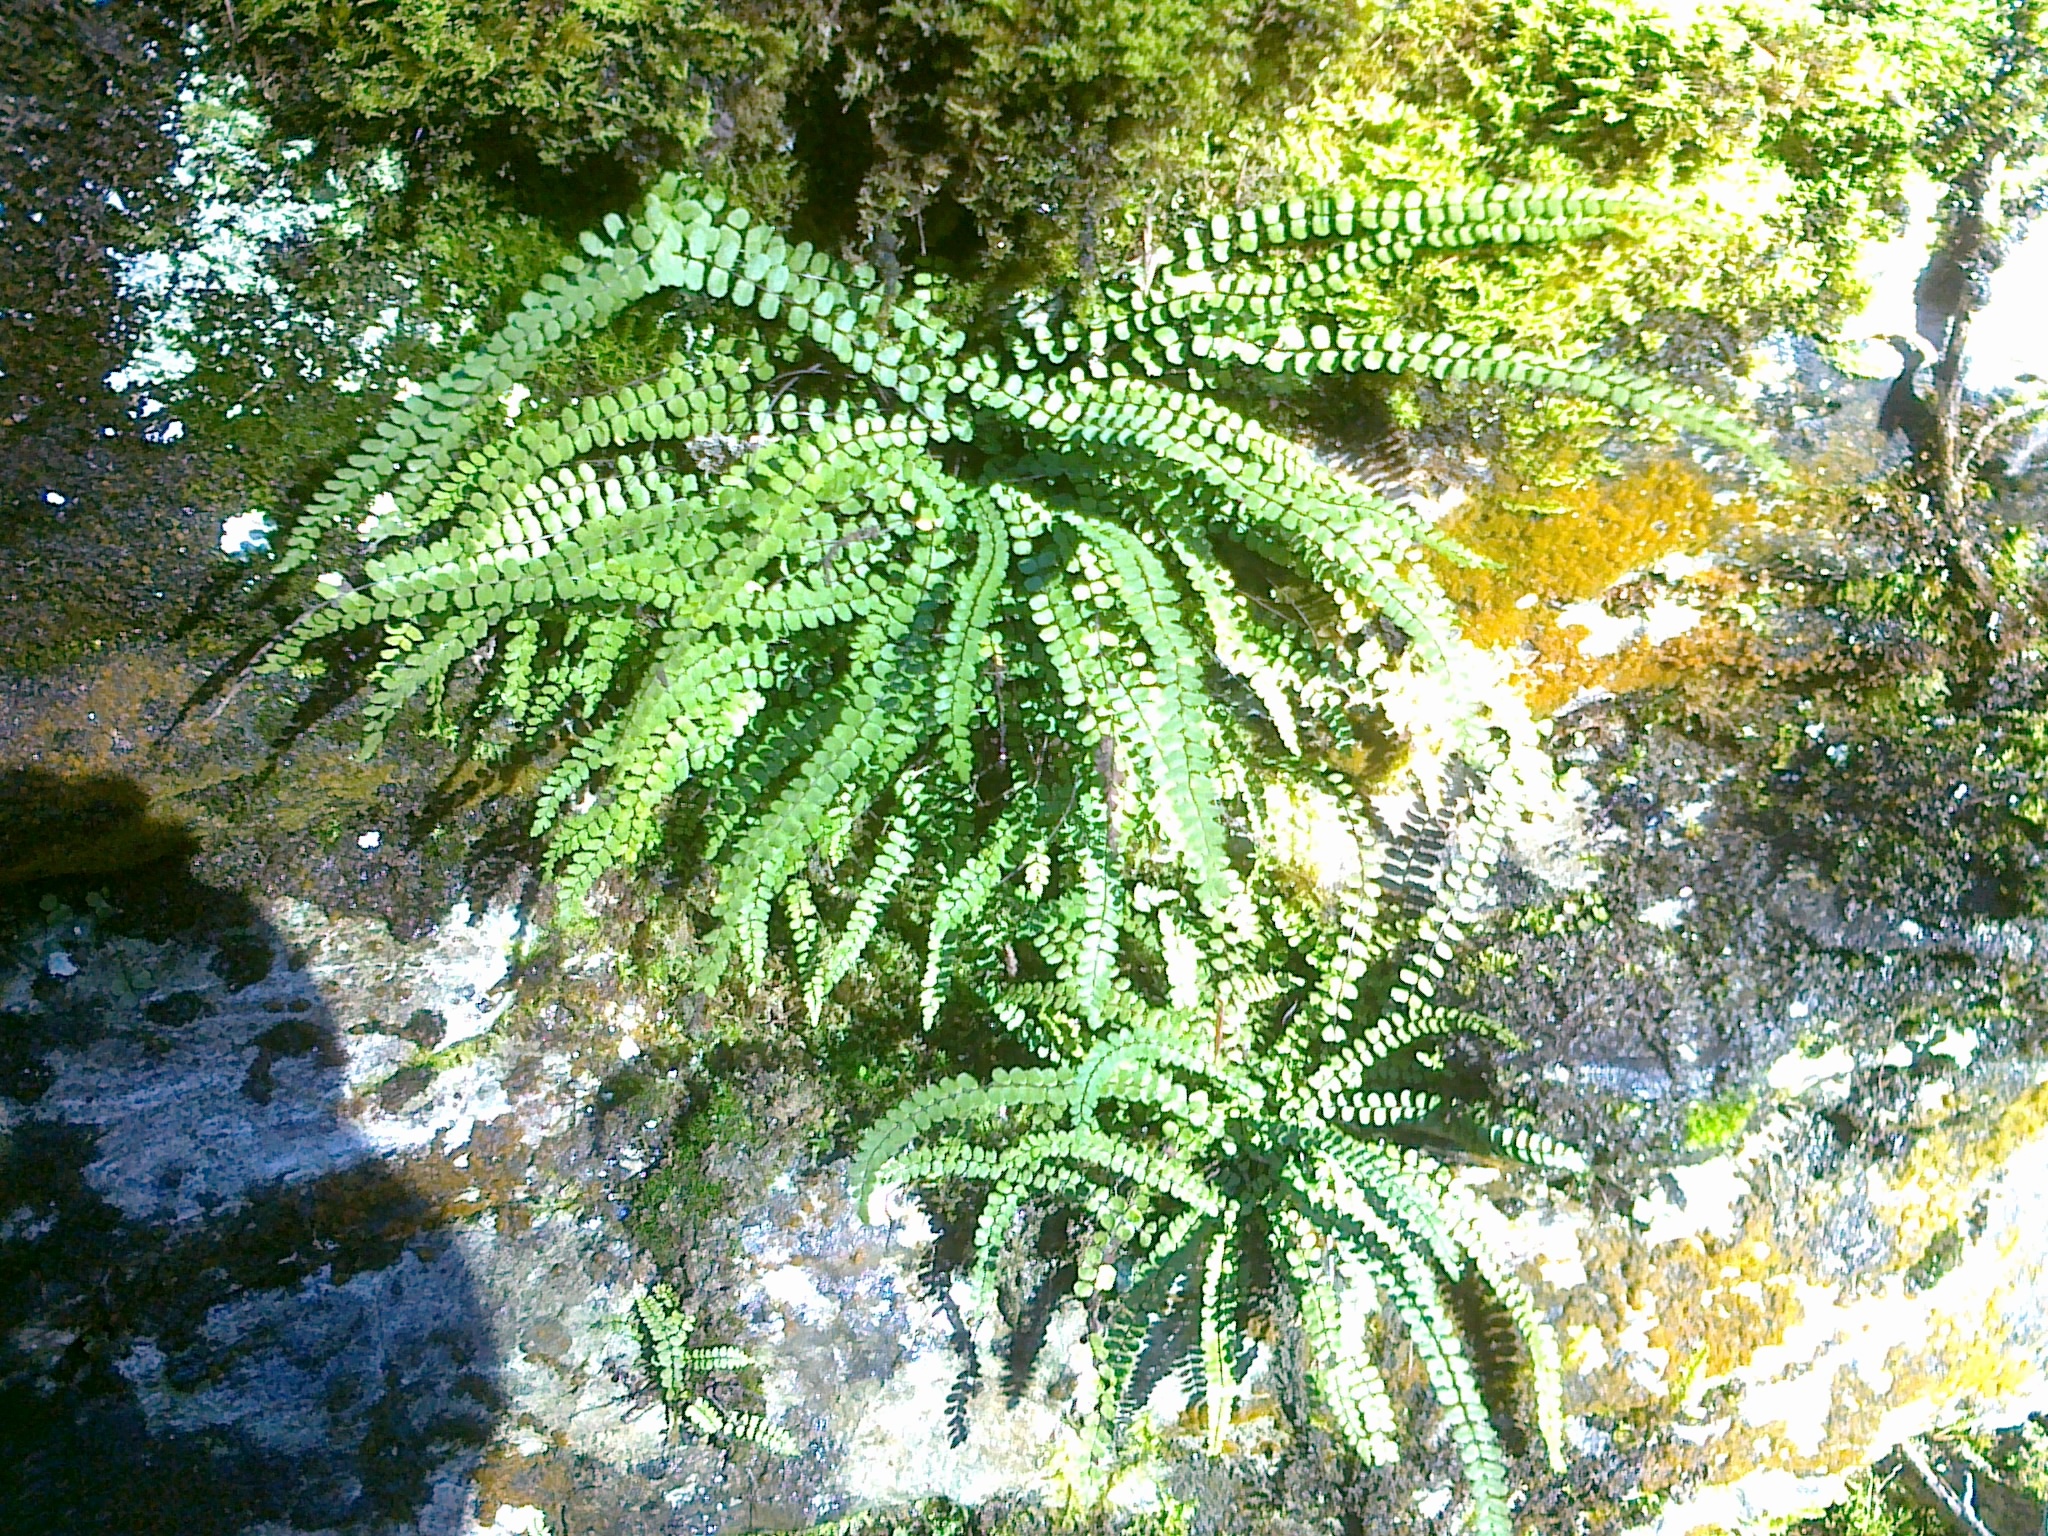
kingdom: Plantae
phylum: Tracheophyta
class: Polypodiopsida
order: Polypodiales
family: Aspleniaceae
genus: Asplenium
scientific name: Asplenium quadrivalens
